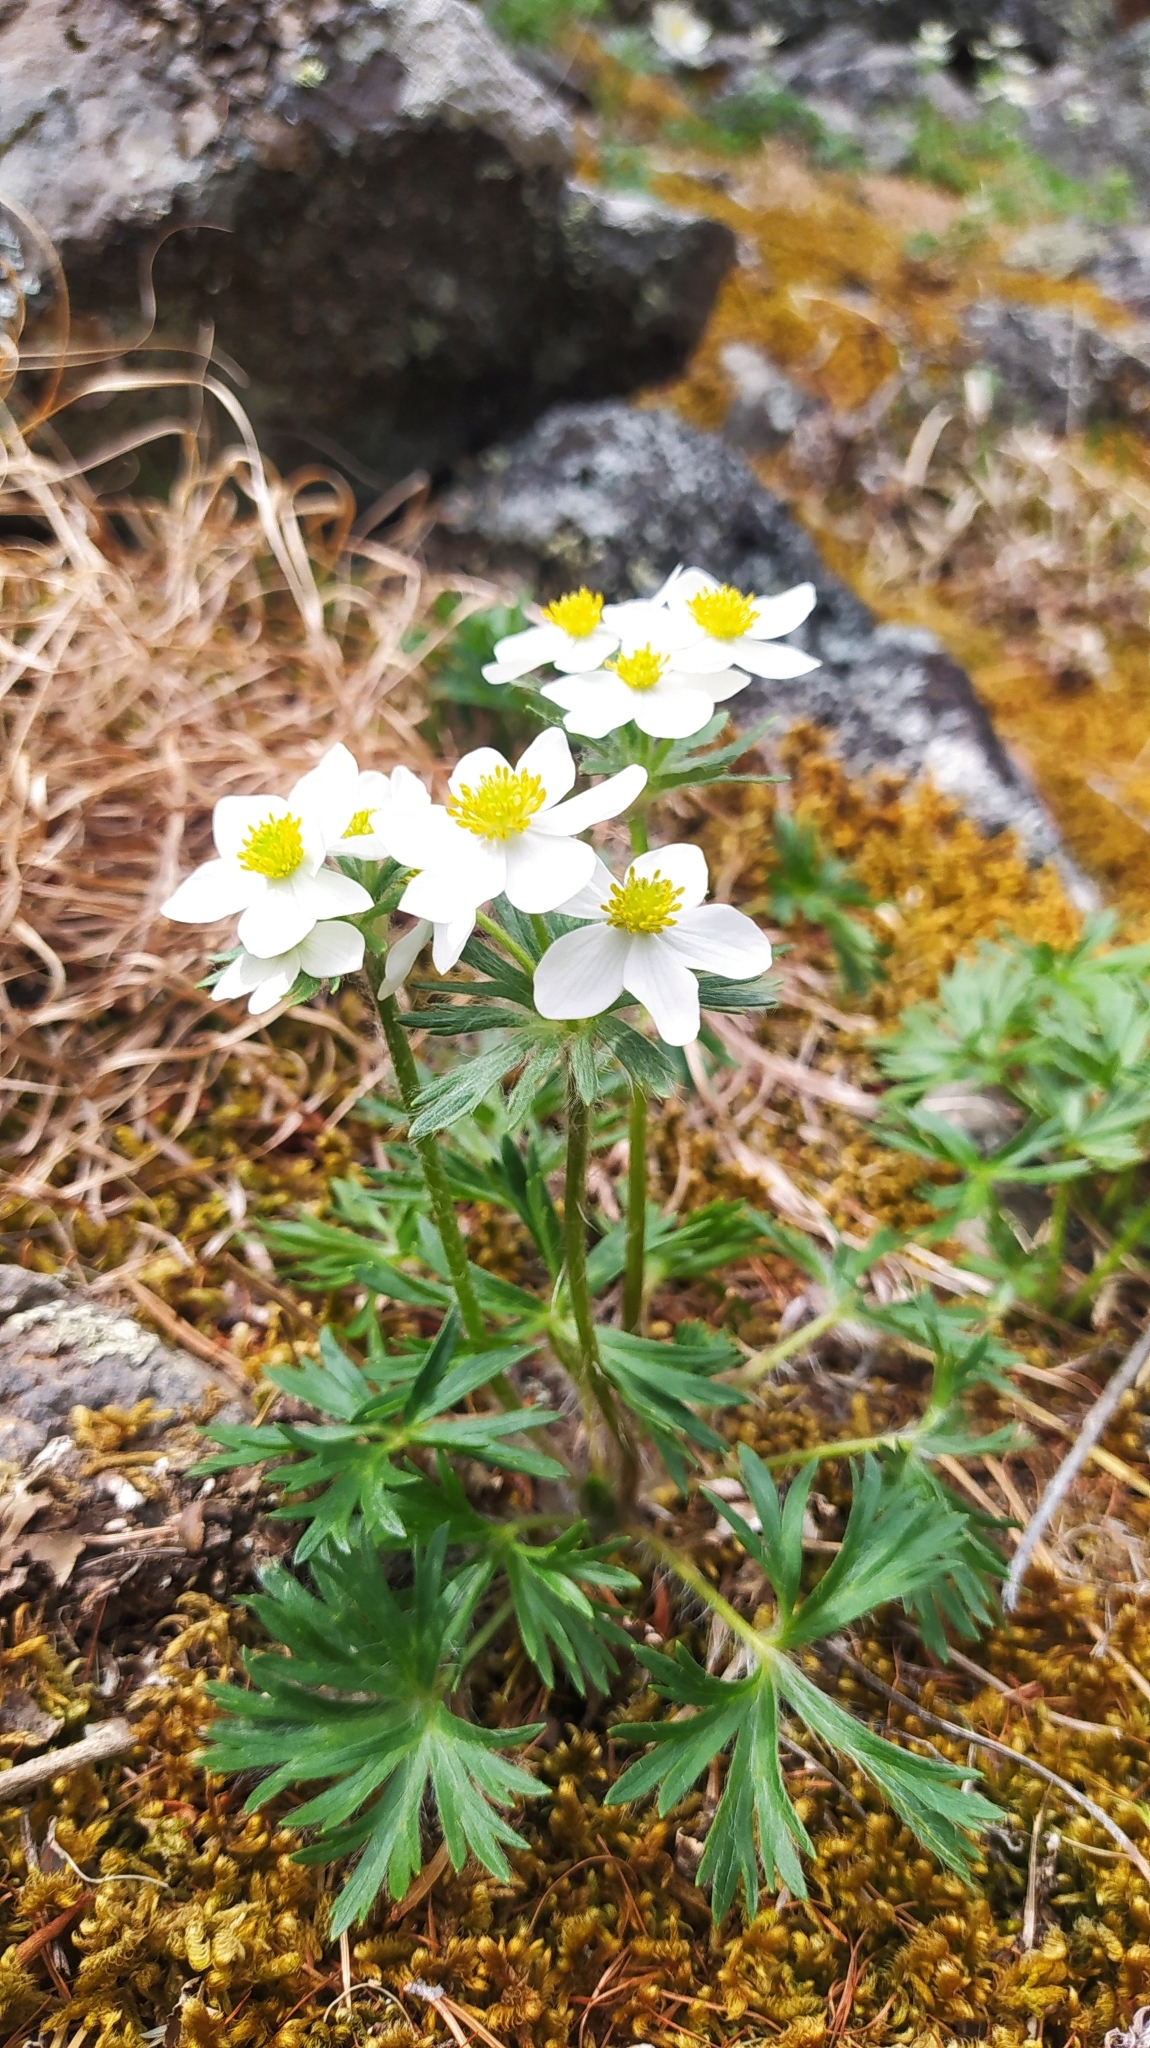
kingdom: Plantae
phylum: Tracheophyta
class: Magnoliopsida
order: Ranunculales
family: Ranunculaceae
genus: Anemonastrum
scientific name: Anemonastrum narcissiflorum
